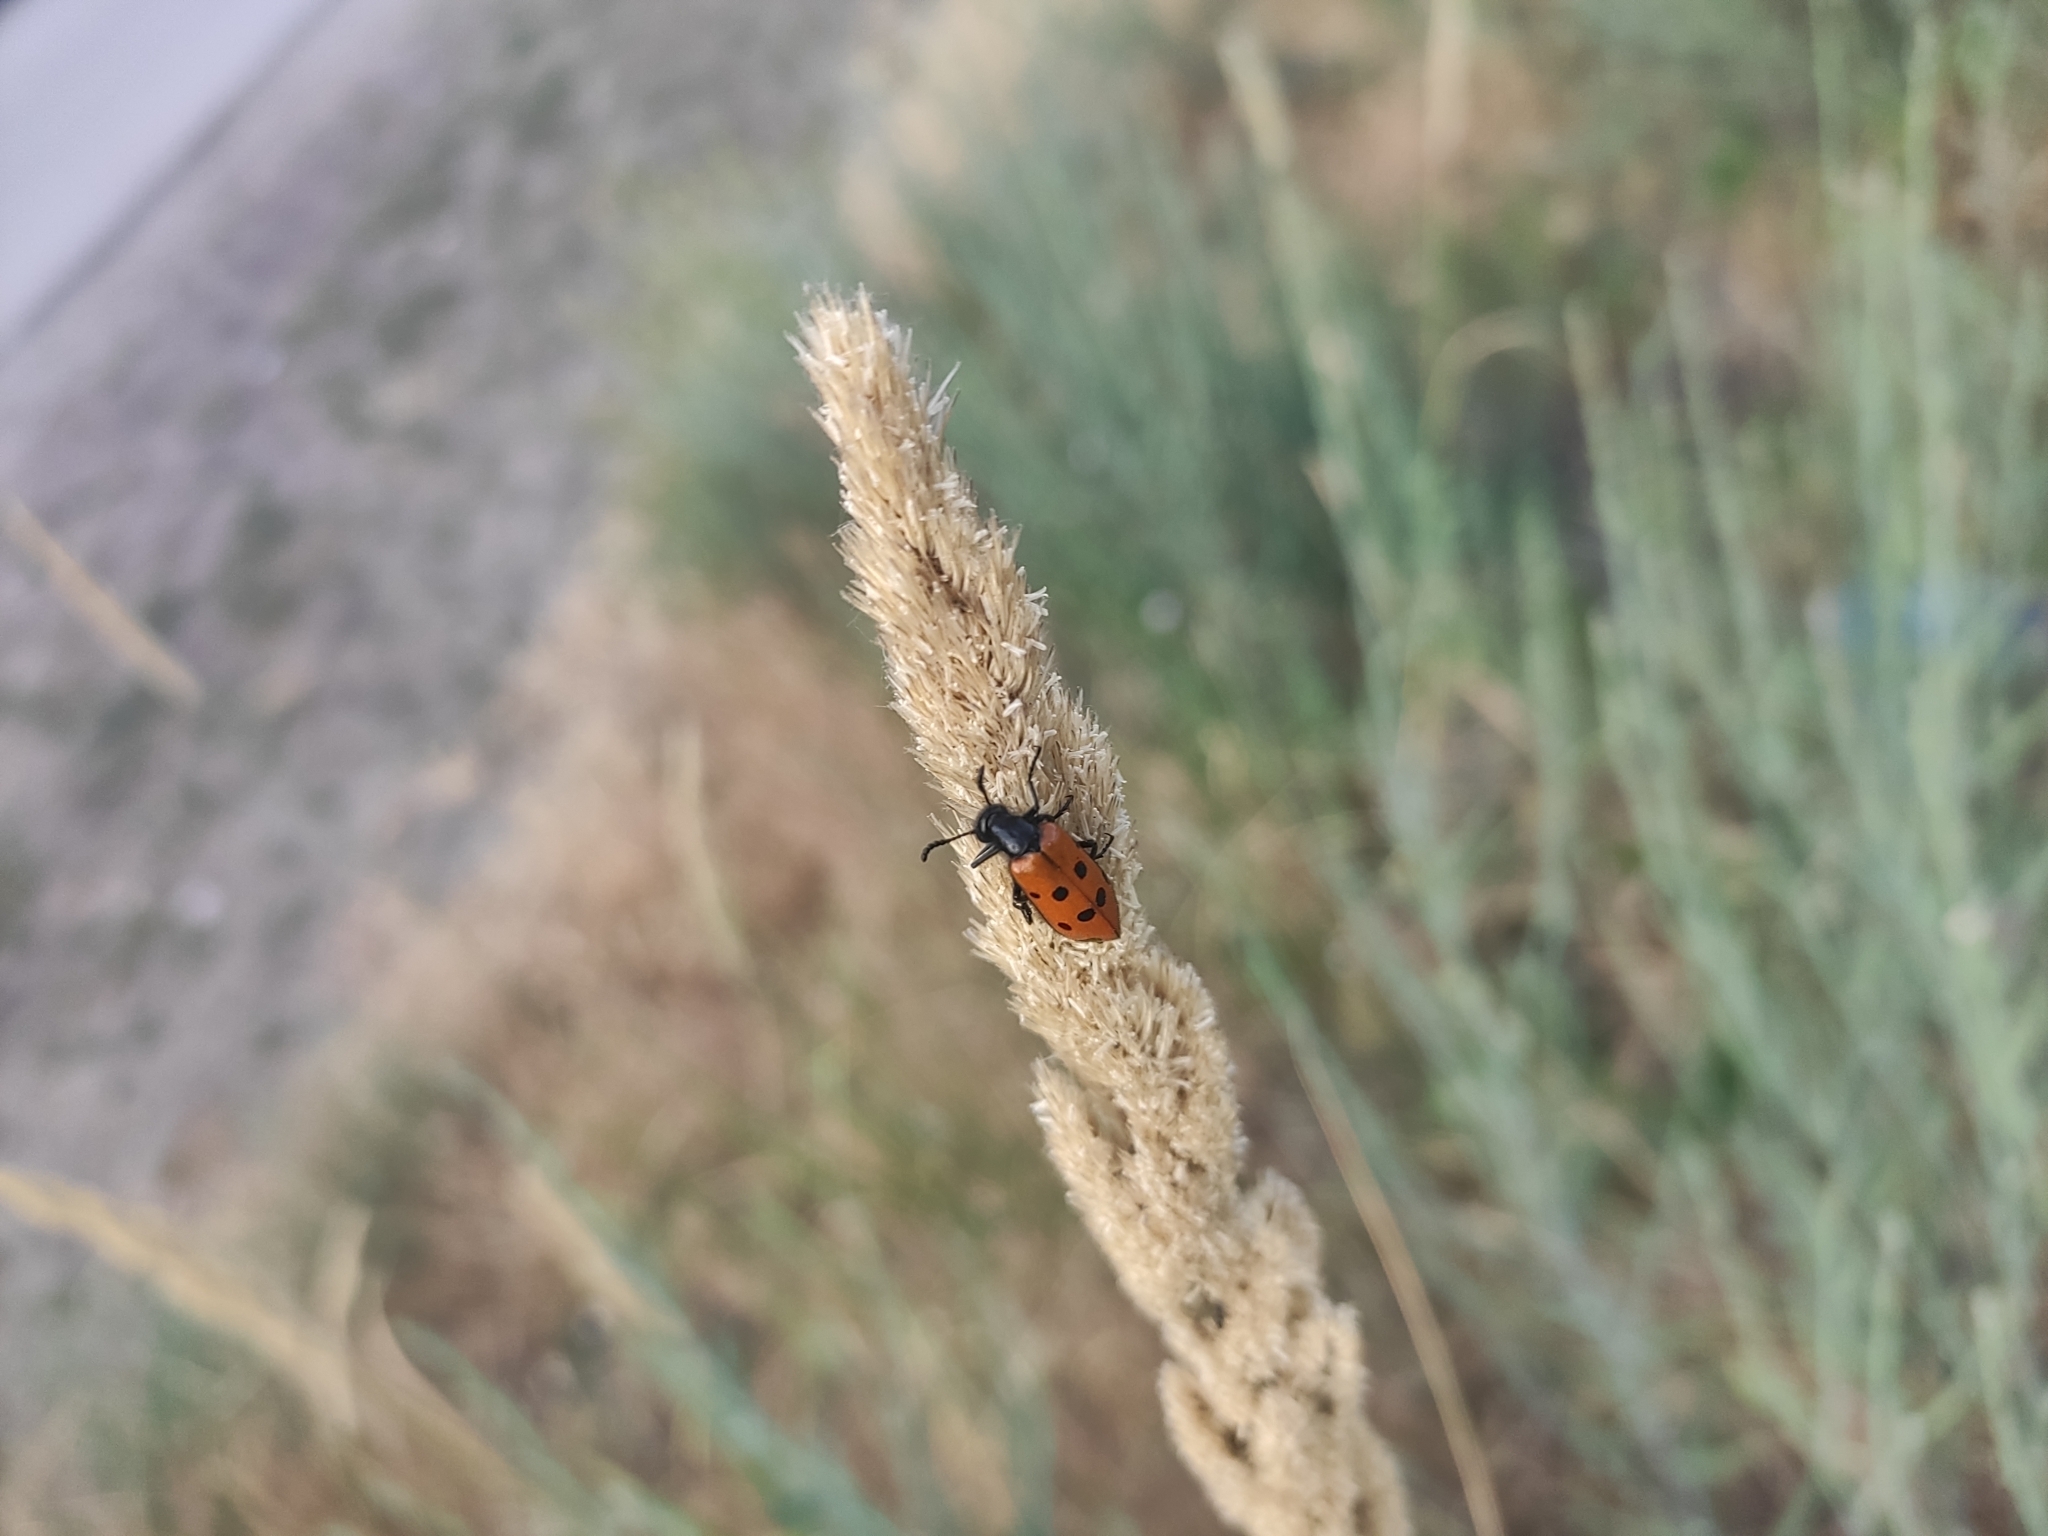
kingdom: Animalia
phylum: Arthropoda
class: Insecta
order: Coleoptera
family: Meloidae
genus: Mylabris
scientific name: Mylabris quadripunctata
